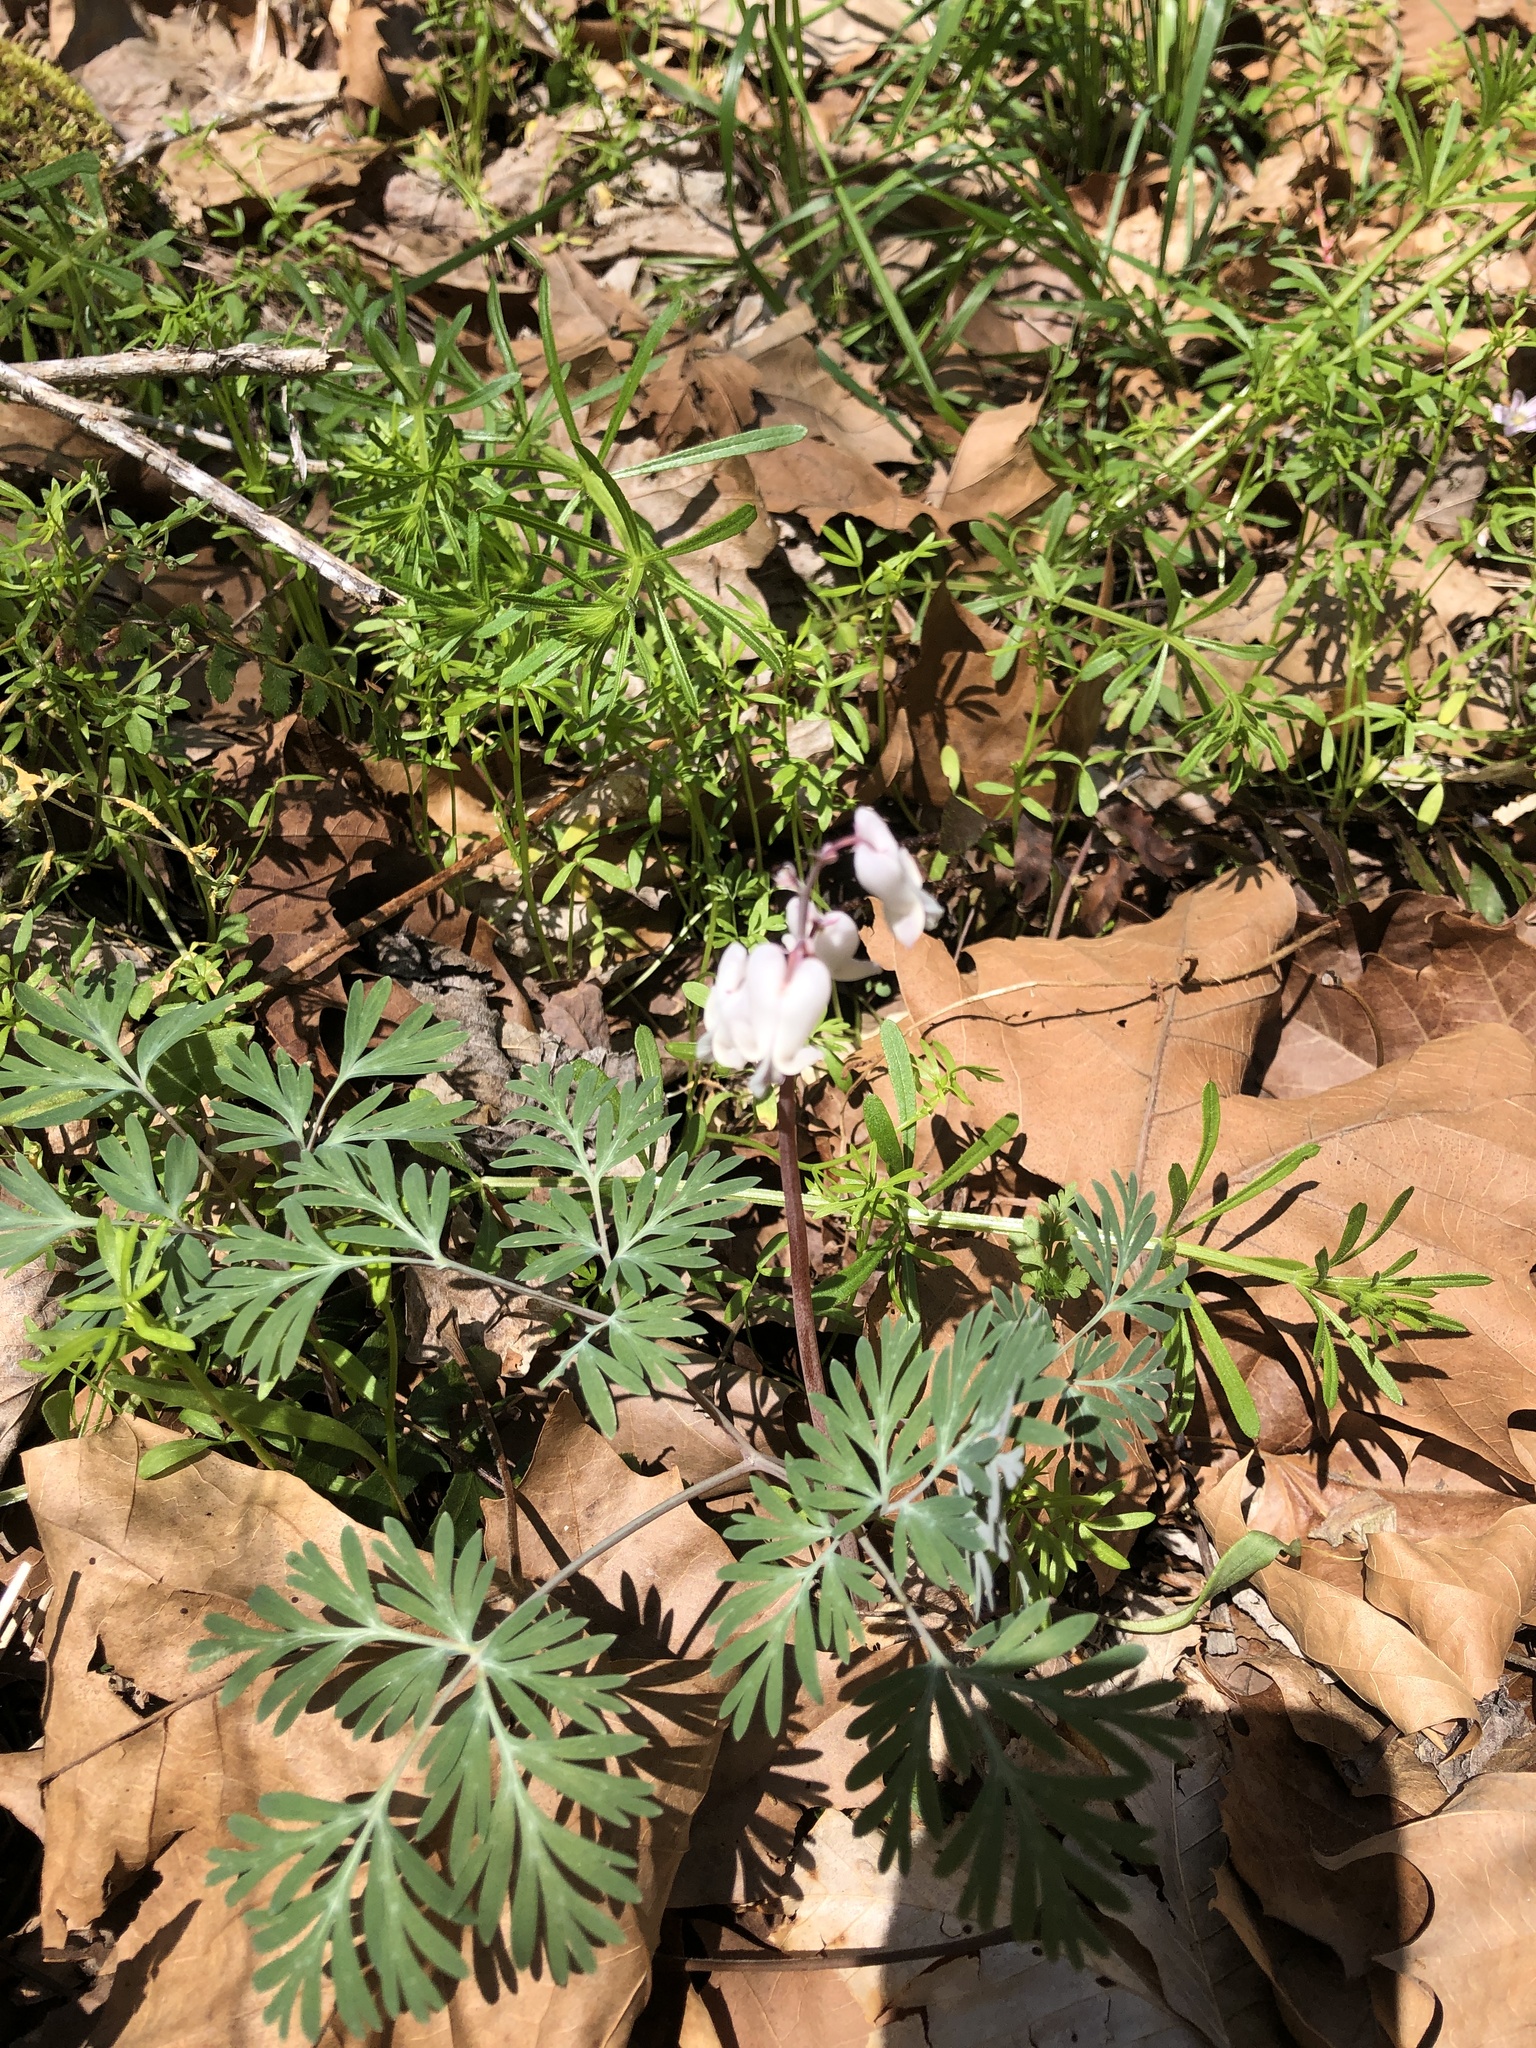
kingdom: Plantae
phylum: Tracheophyta
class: Magnoliopsida
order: Ranunculales
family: Papaveraceae
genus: Dicentra
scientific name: Dicentra canadensis
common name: Squirrel-corn
